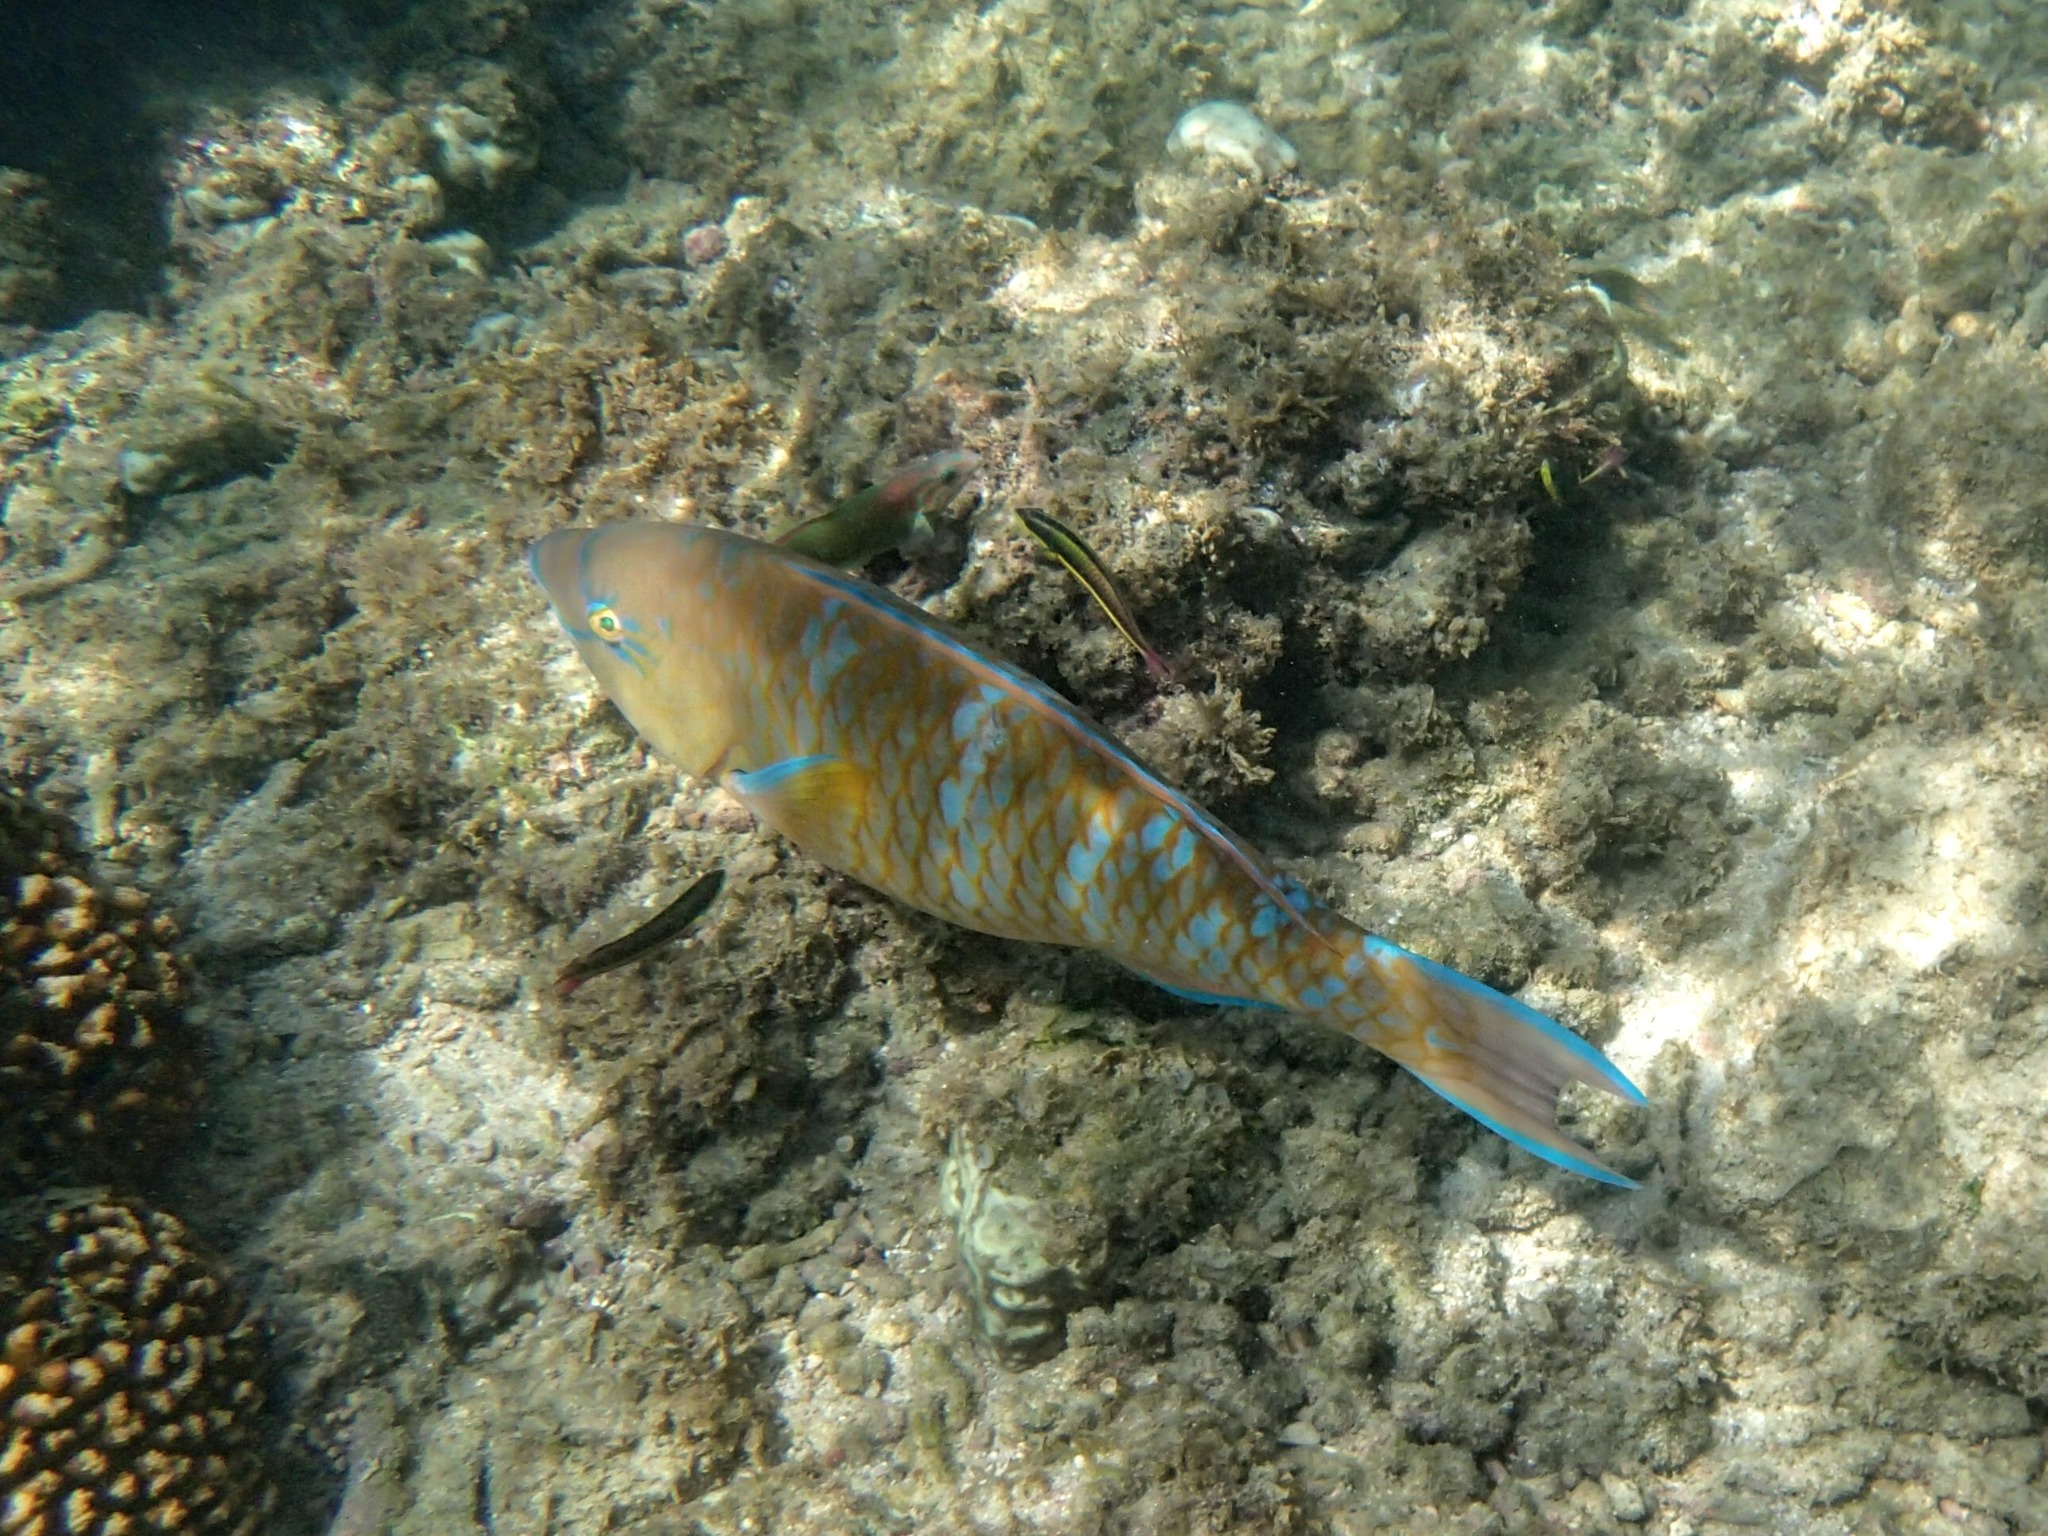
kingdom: Animalia
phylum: Chordata
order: Perciformes
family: Scaridae
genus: Scarus
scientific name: Scarus ghobban
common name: Blue-barred parrotfish
